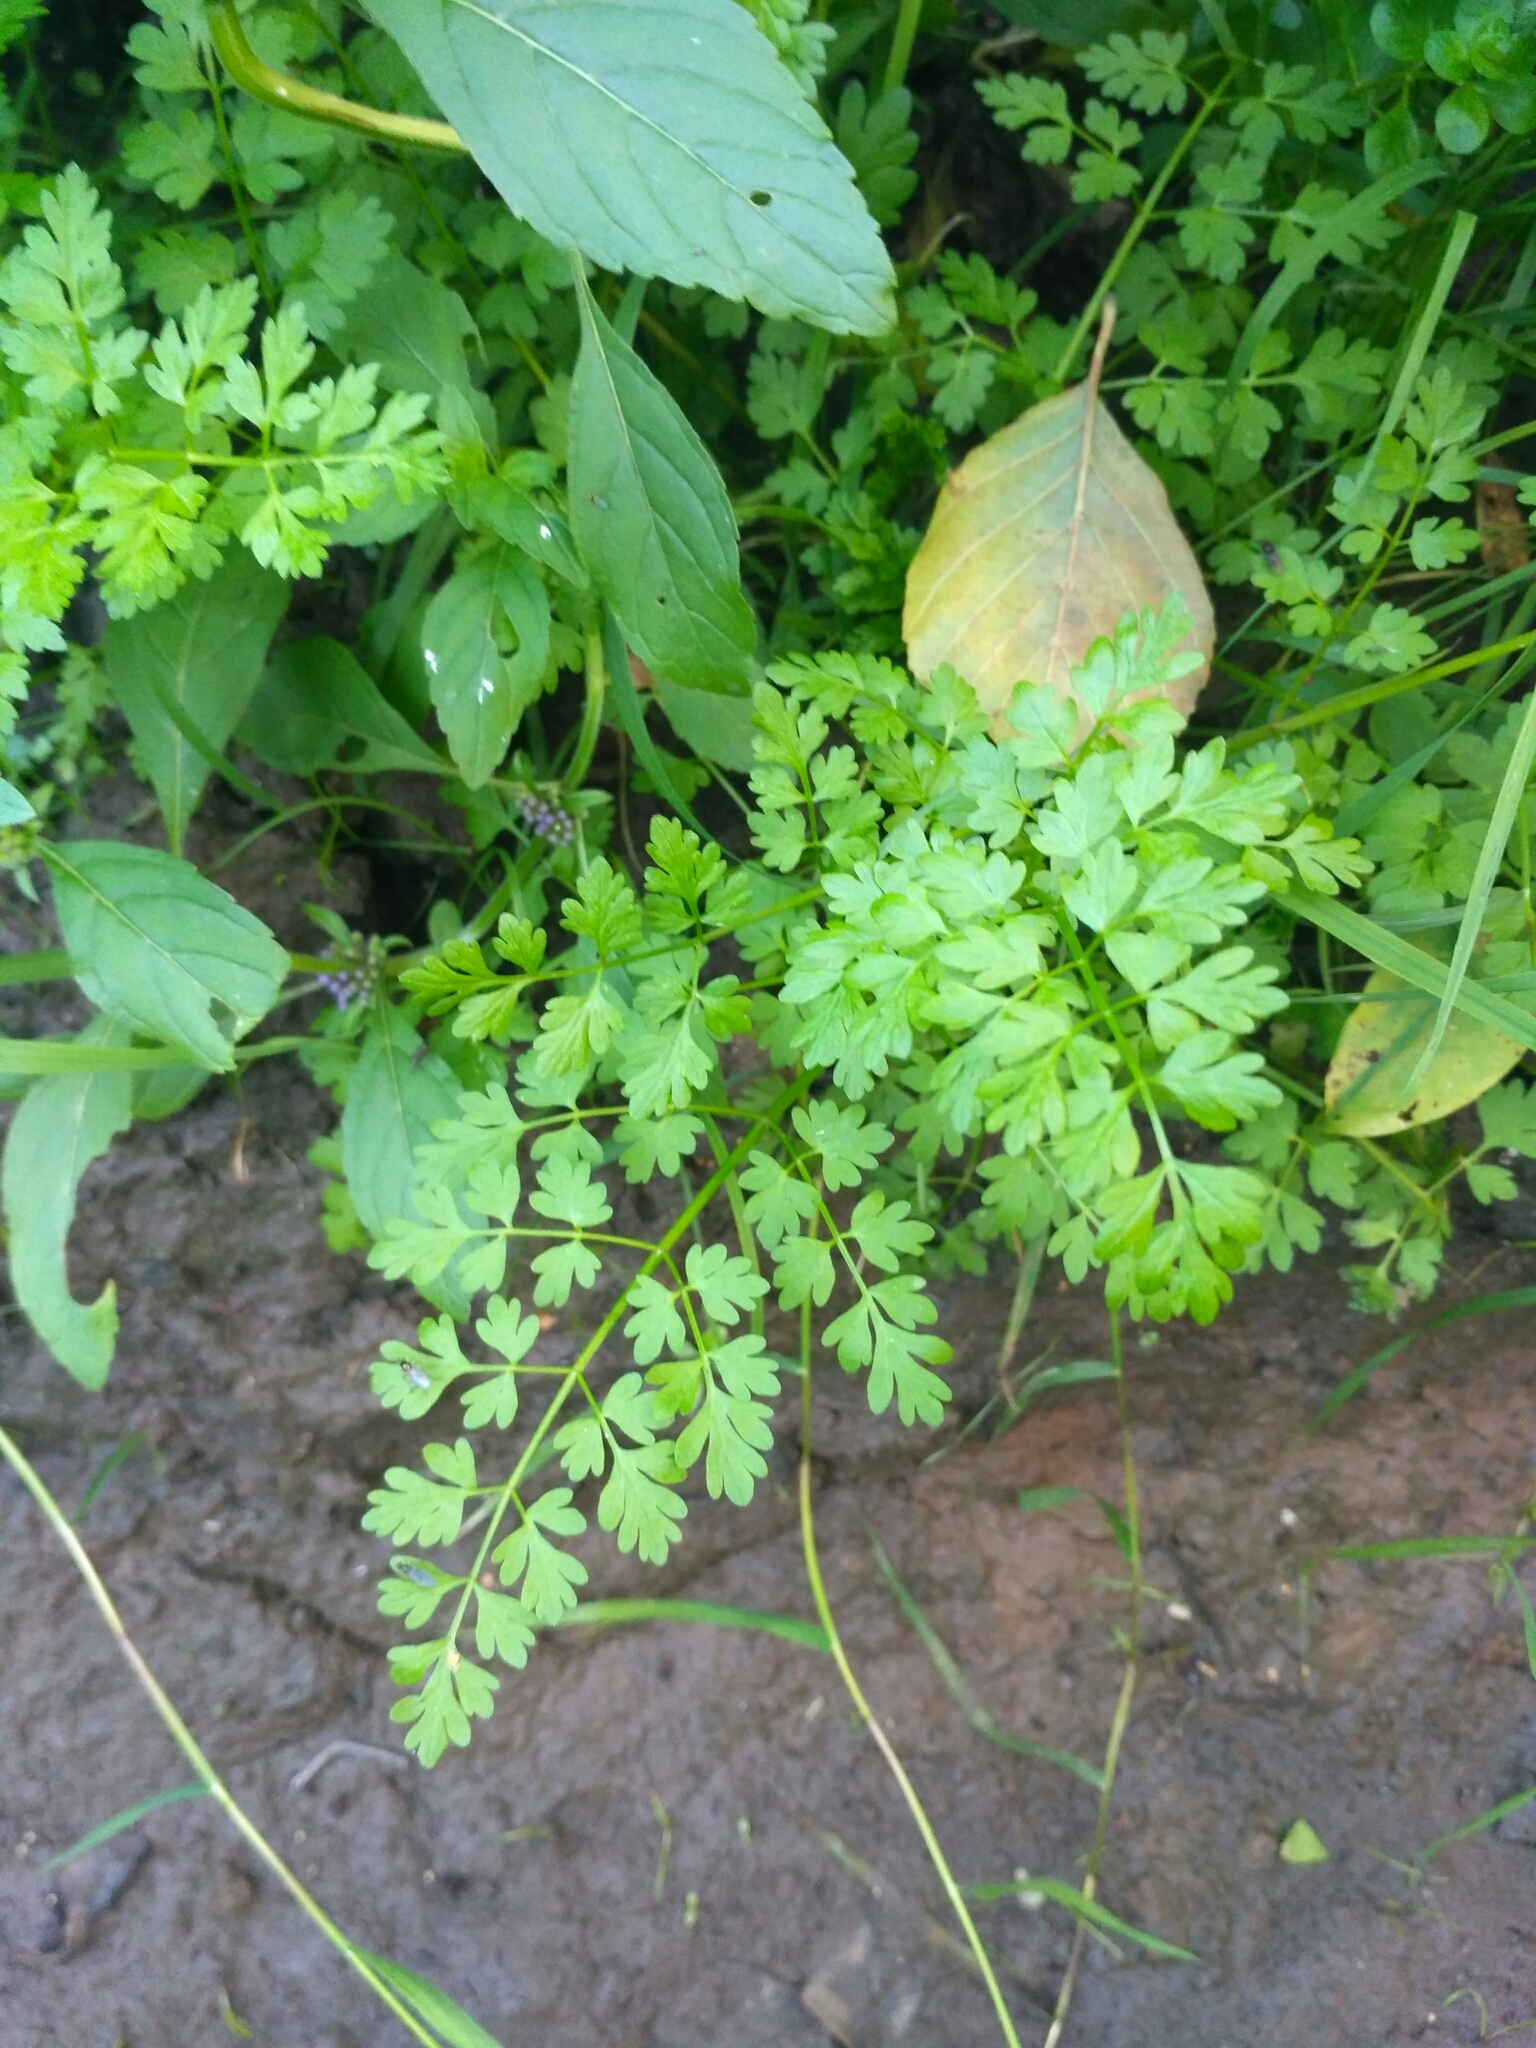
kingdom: Plantae
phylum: Tracheophyta
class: Magnoliopsida
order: Apiales
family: Apiaceae
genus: Oenanthe
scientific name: Oenanthe aquatica
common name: Fine-leaved water-dropwort
